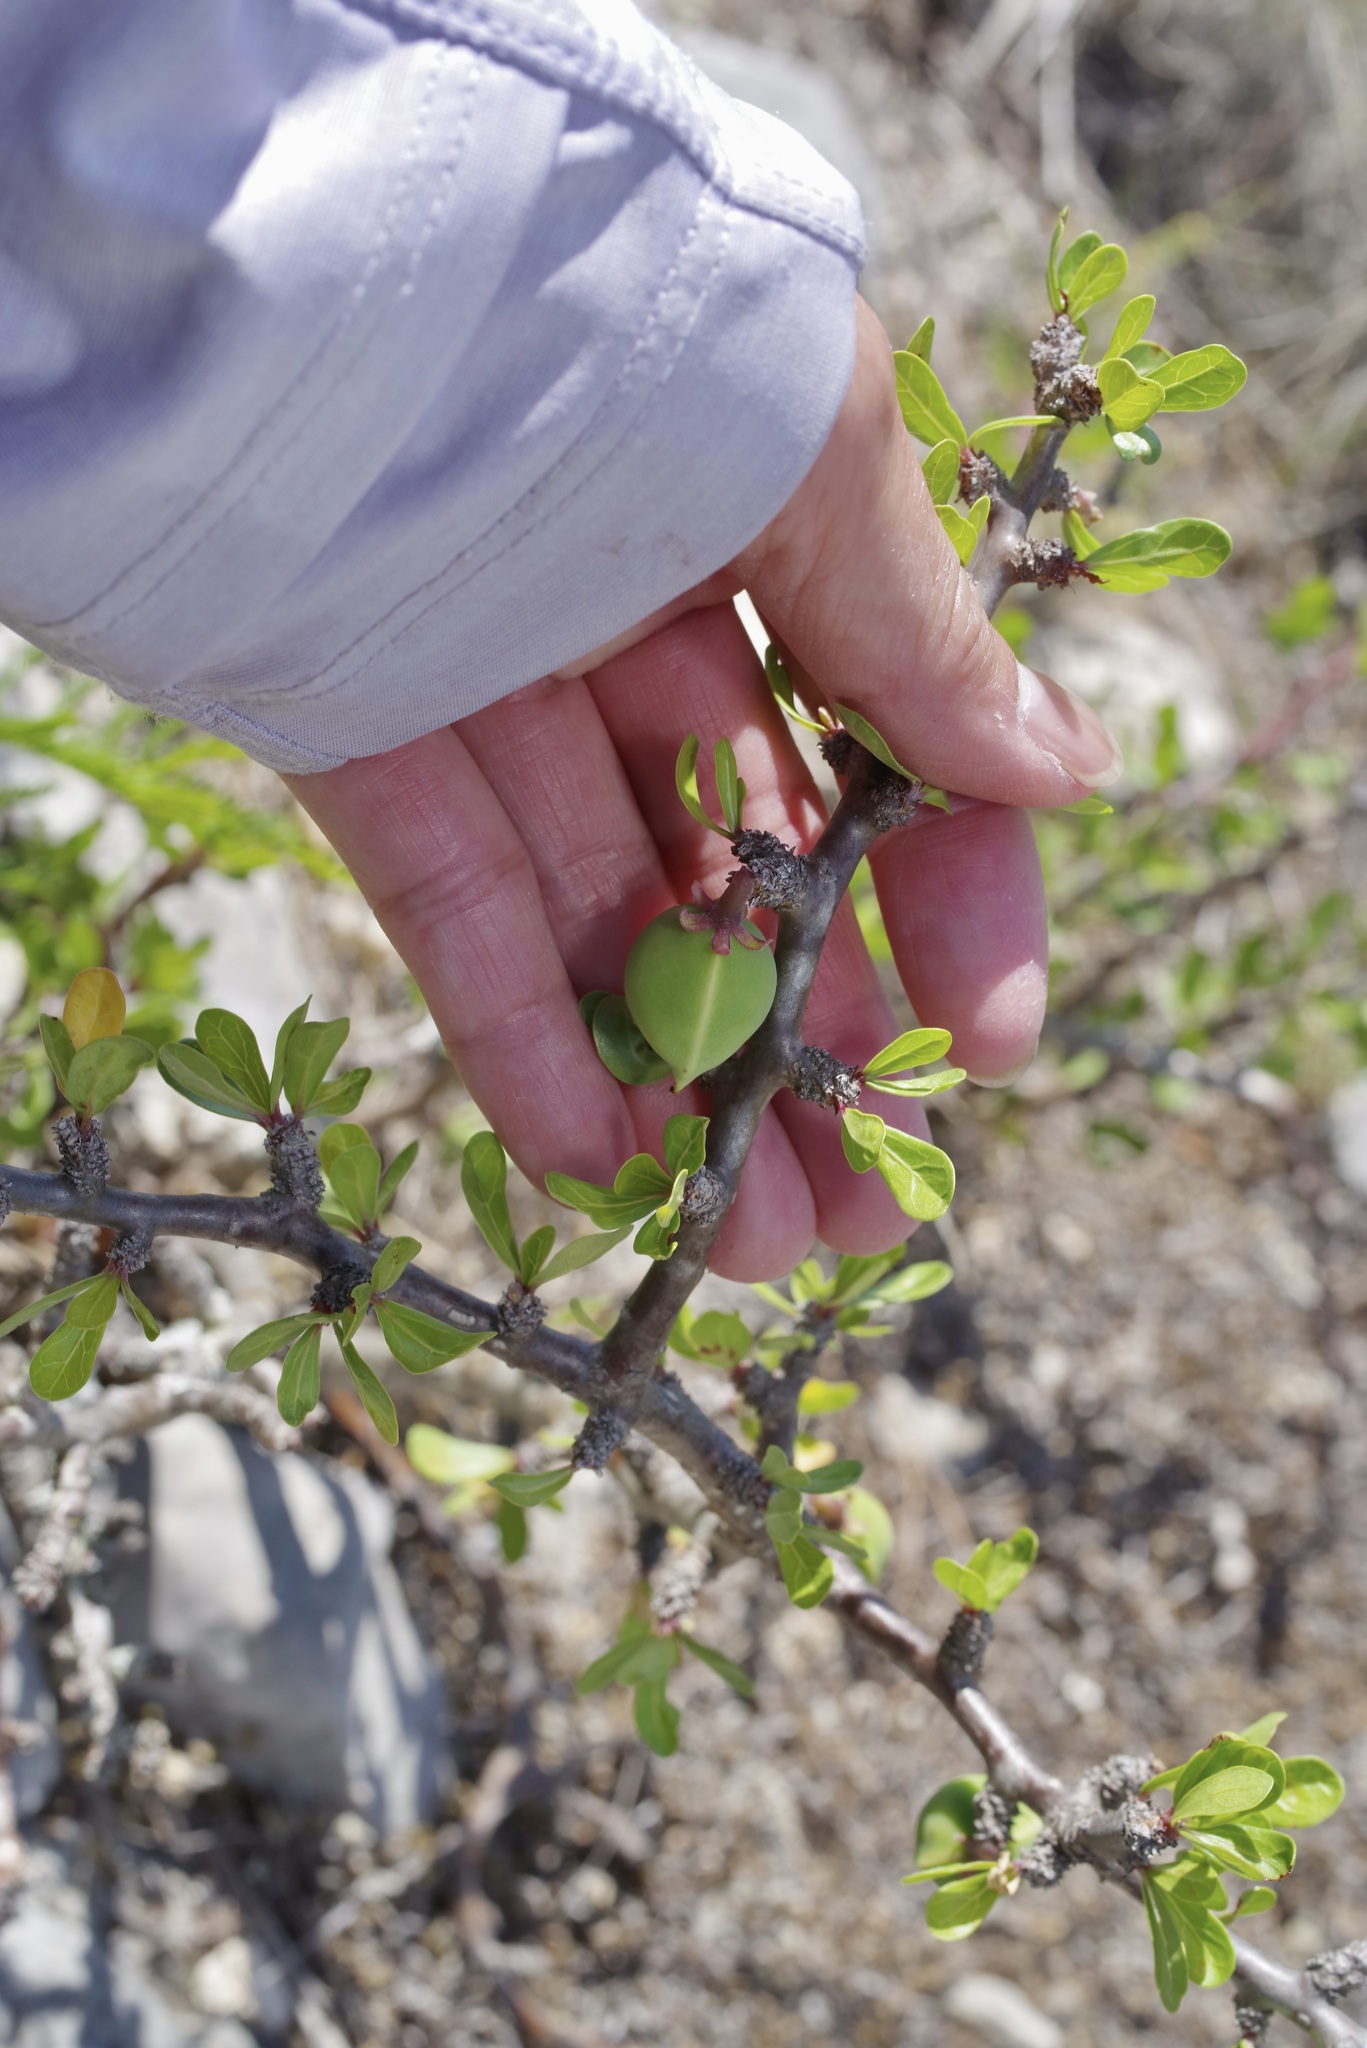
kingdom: Plantae
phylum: Tracheophyta
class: Magnoliopsida
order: Malpighiales
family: Euphorbiaceae
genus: Jatropha
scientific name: Jatropha dioica
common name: Leatherstem
